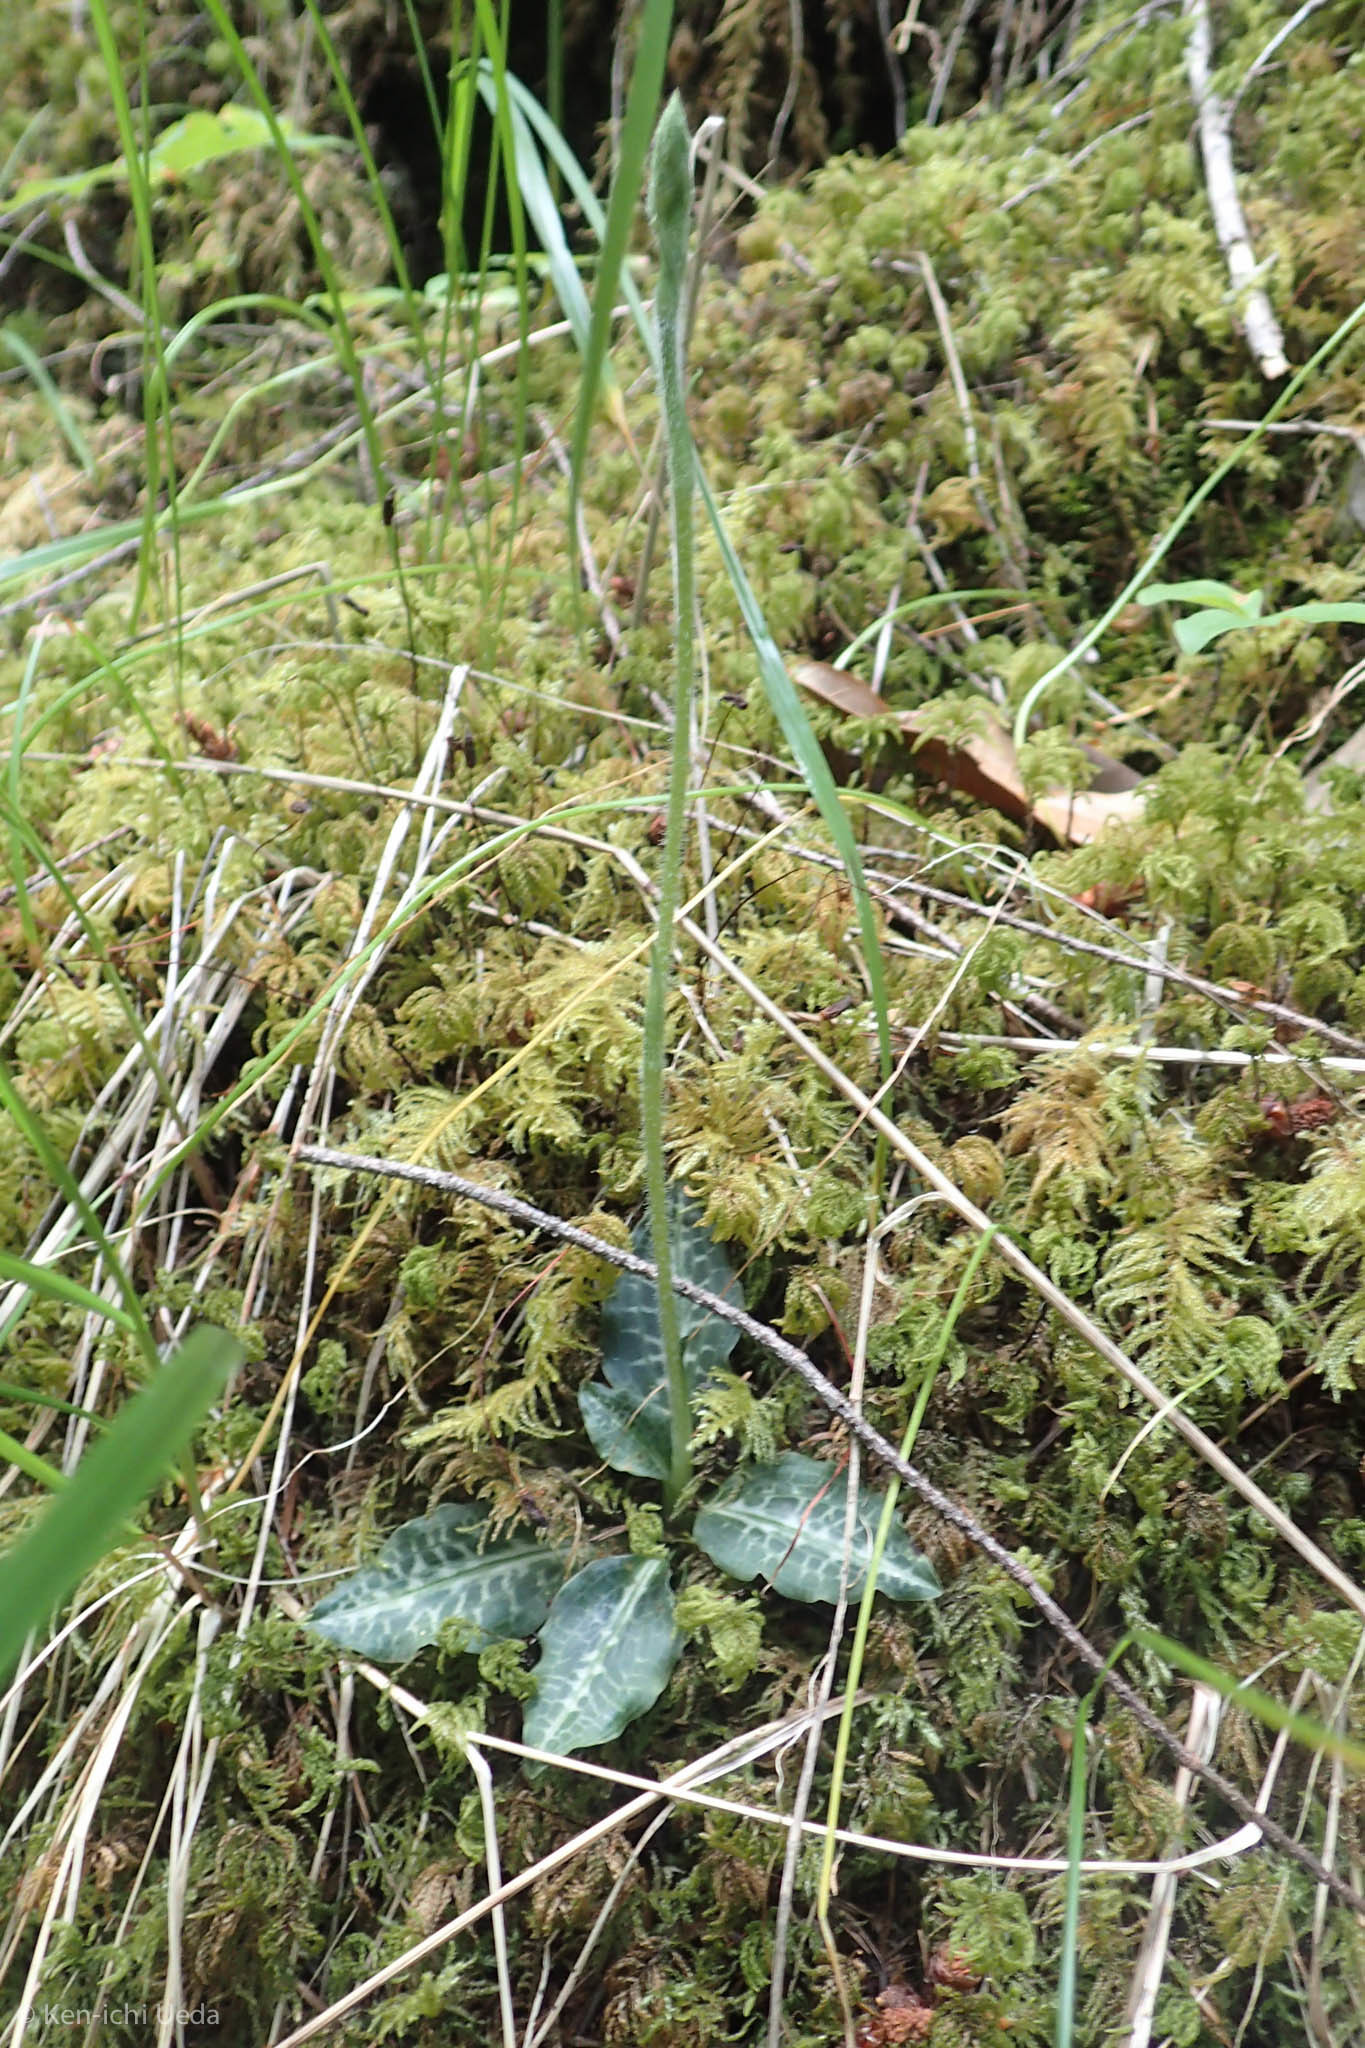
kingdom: Plantae
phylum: Tracheophyta
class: Liliopsida
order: Asparagales
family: Orchidaceae
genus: Goodyera
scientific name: Goodyera oblongifolia
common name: Giant rattlesnake-plantain
